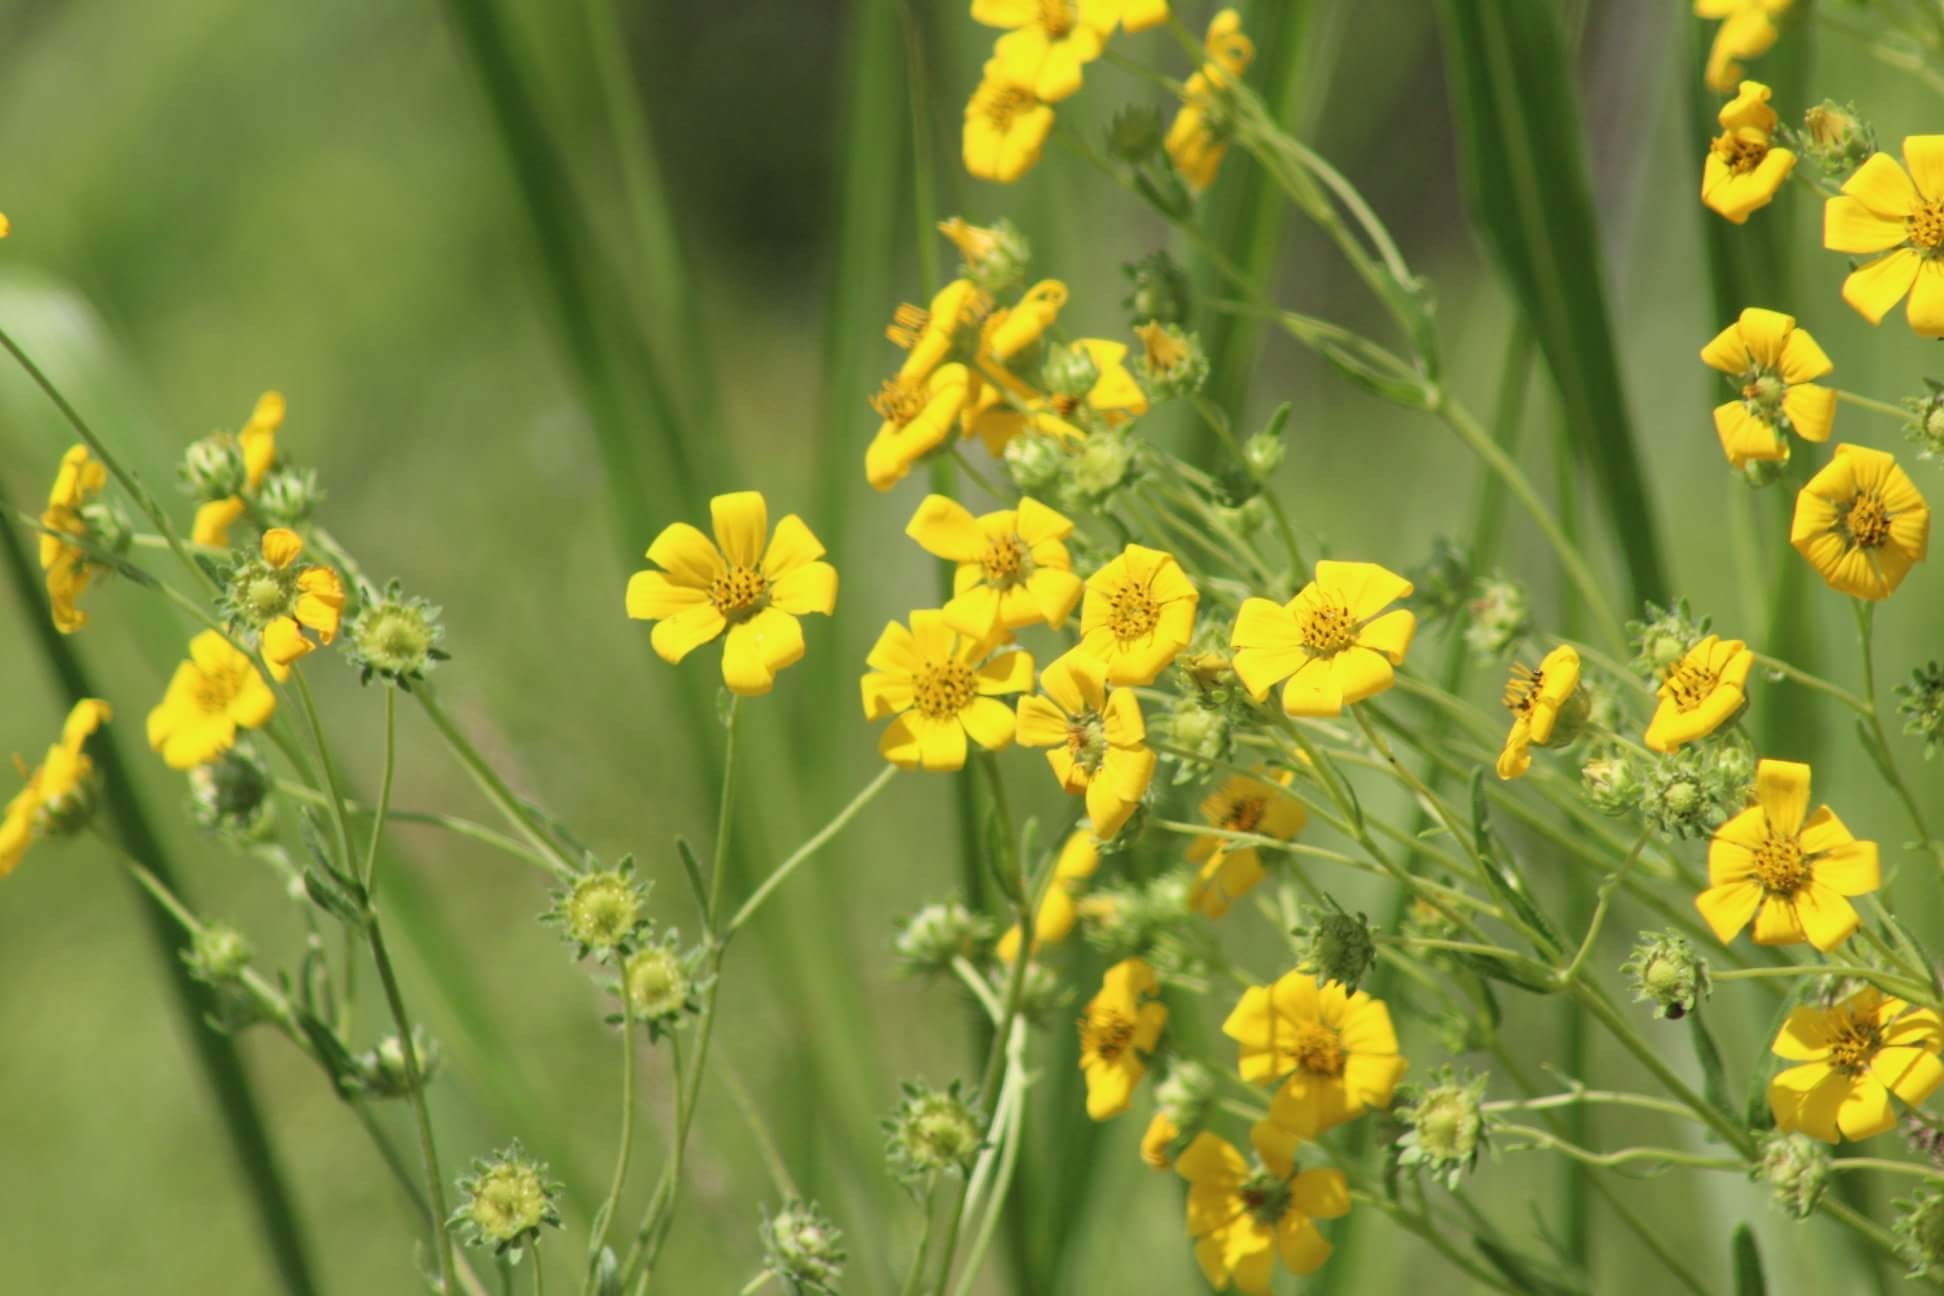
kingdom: Plantae
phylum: Tracheophyta
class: Magnoliopsida
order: Asterales
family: Asteraceae
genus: Engelmannia
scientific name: Engelmannia peristenia
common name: Engelmann's daisy
